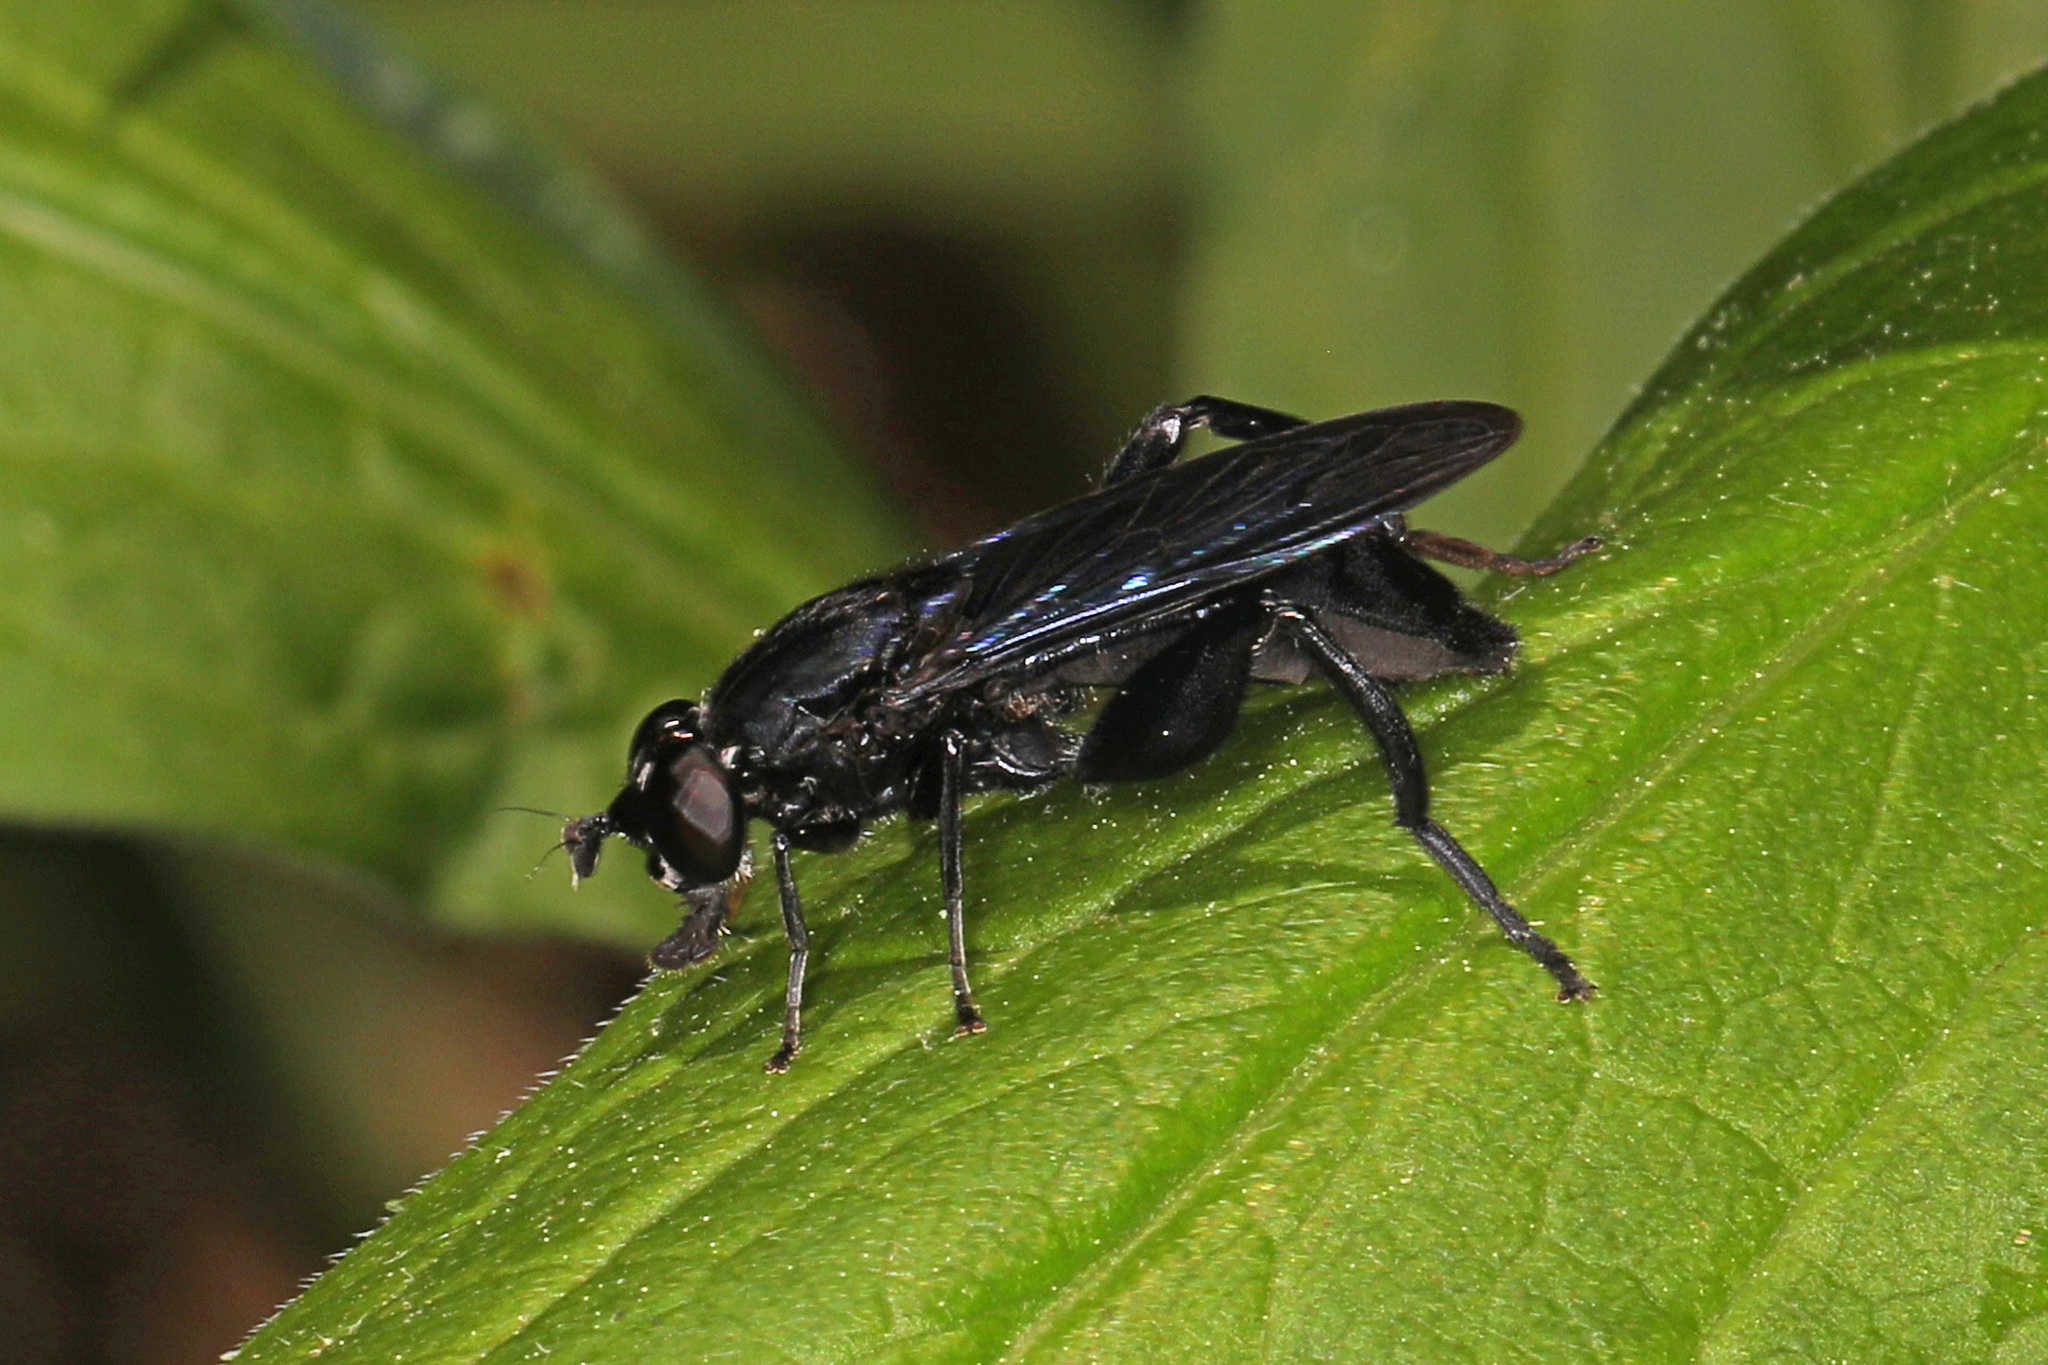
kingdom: Animalia
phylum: Arthropoda
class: Insecta
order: Diptera
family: Syrphidae
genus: Chalcosyrphus
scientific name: Chalcosyrphus chalybeus
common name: Violet leafwalker
